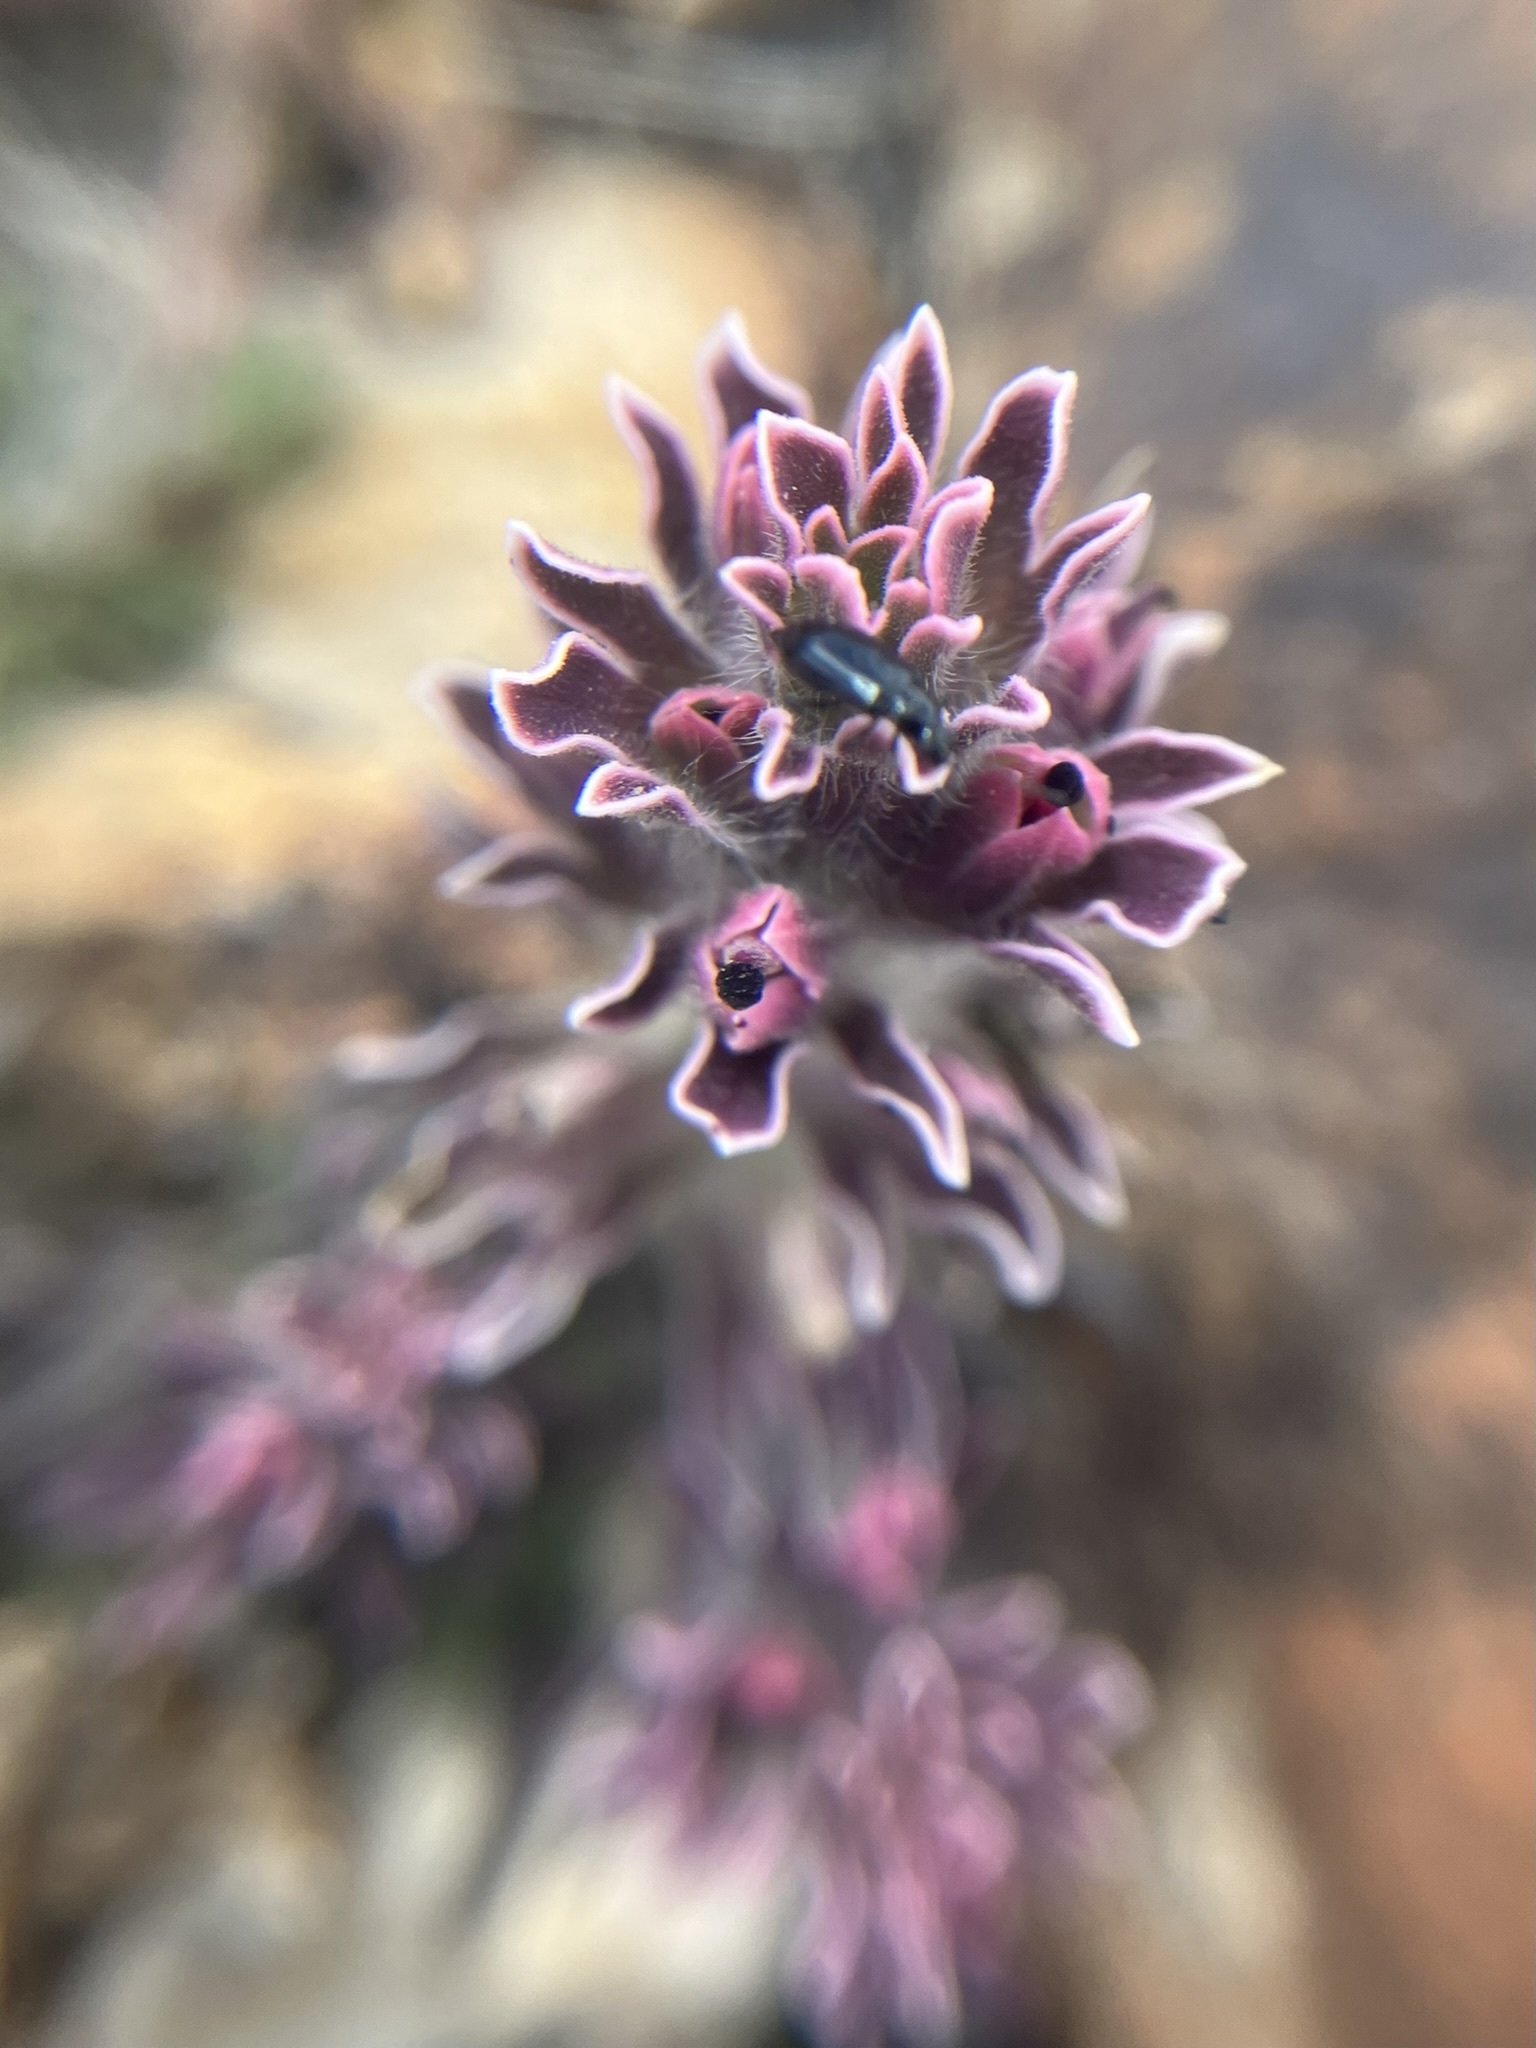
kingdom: Plantae
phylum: Tracheophyta
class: Magnoliopsida
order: Lamiales
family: Orobanchaceae
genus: Castilleja
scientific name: Castilleja nana
